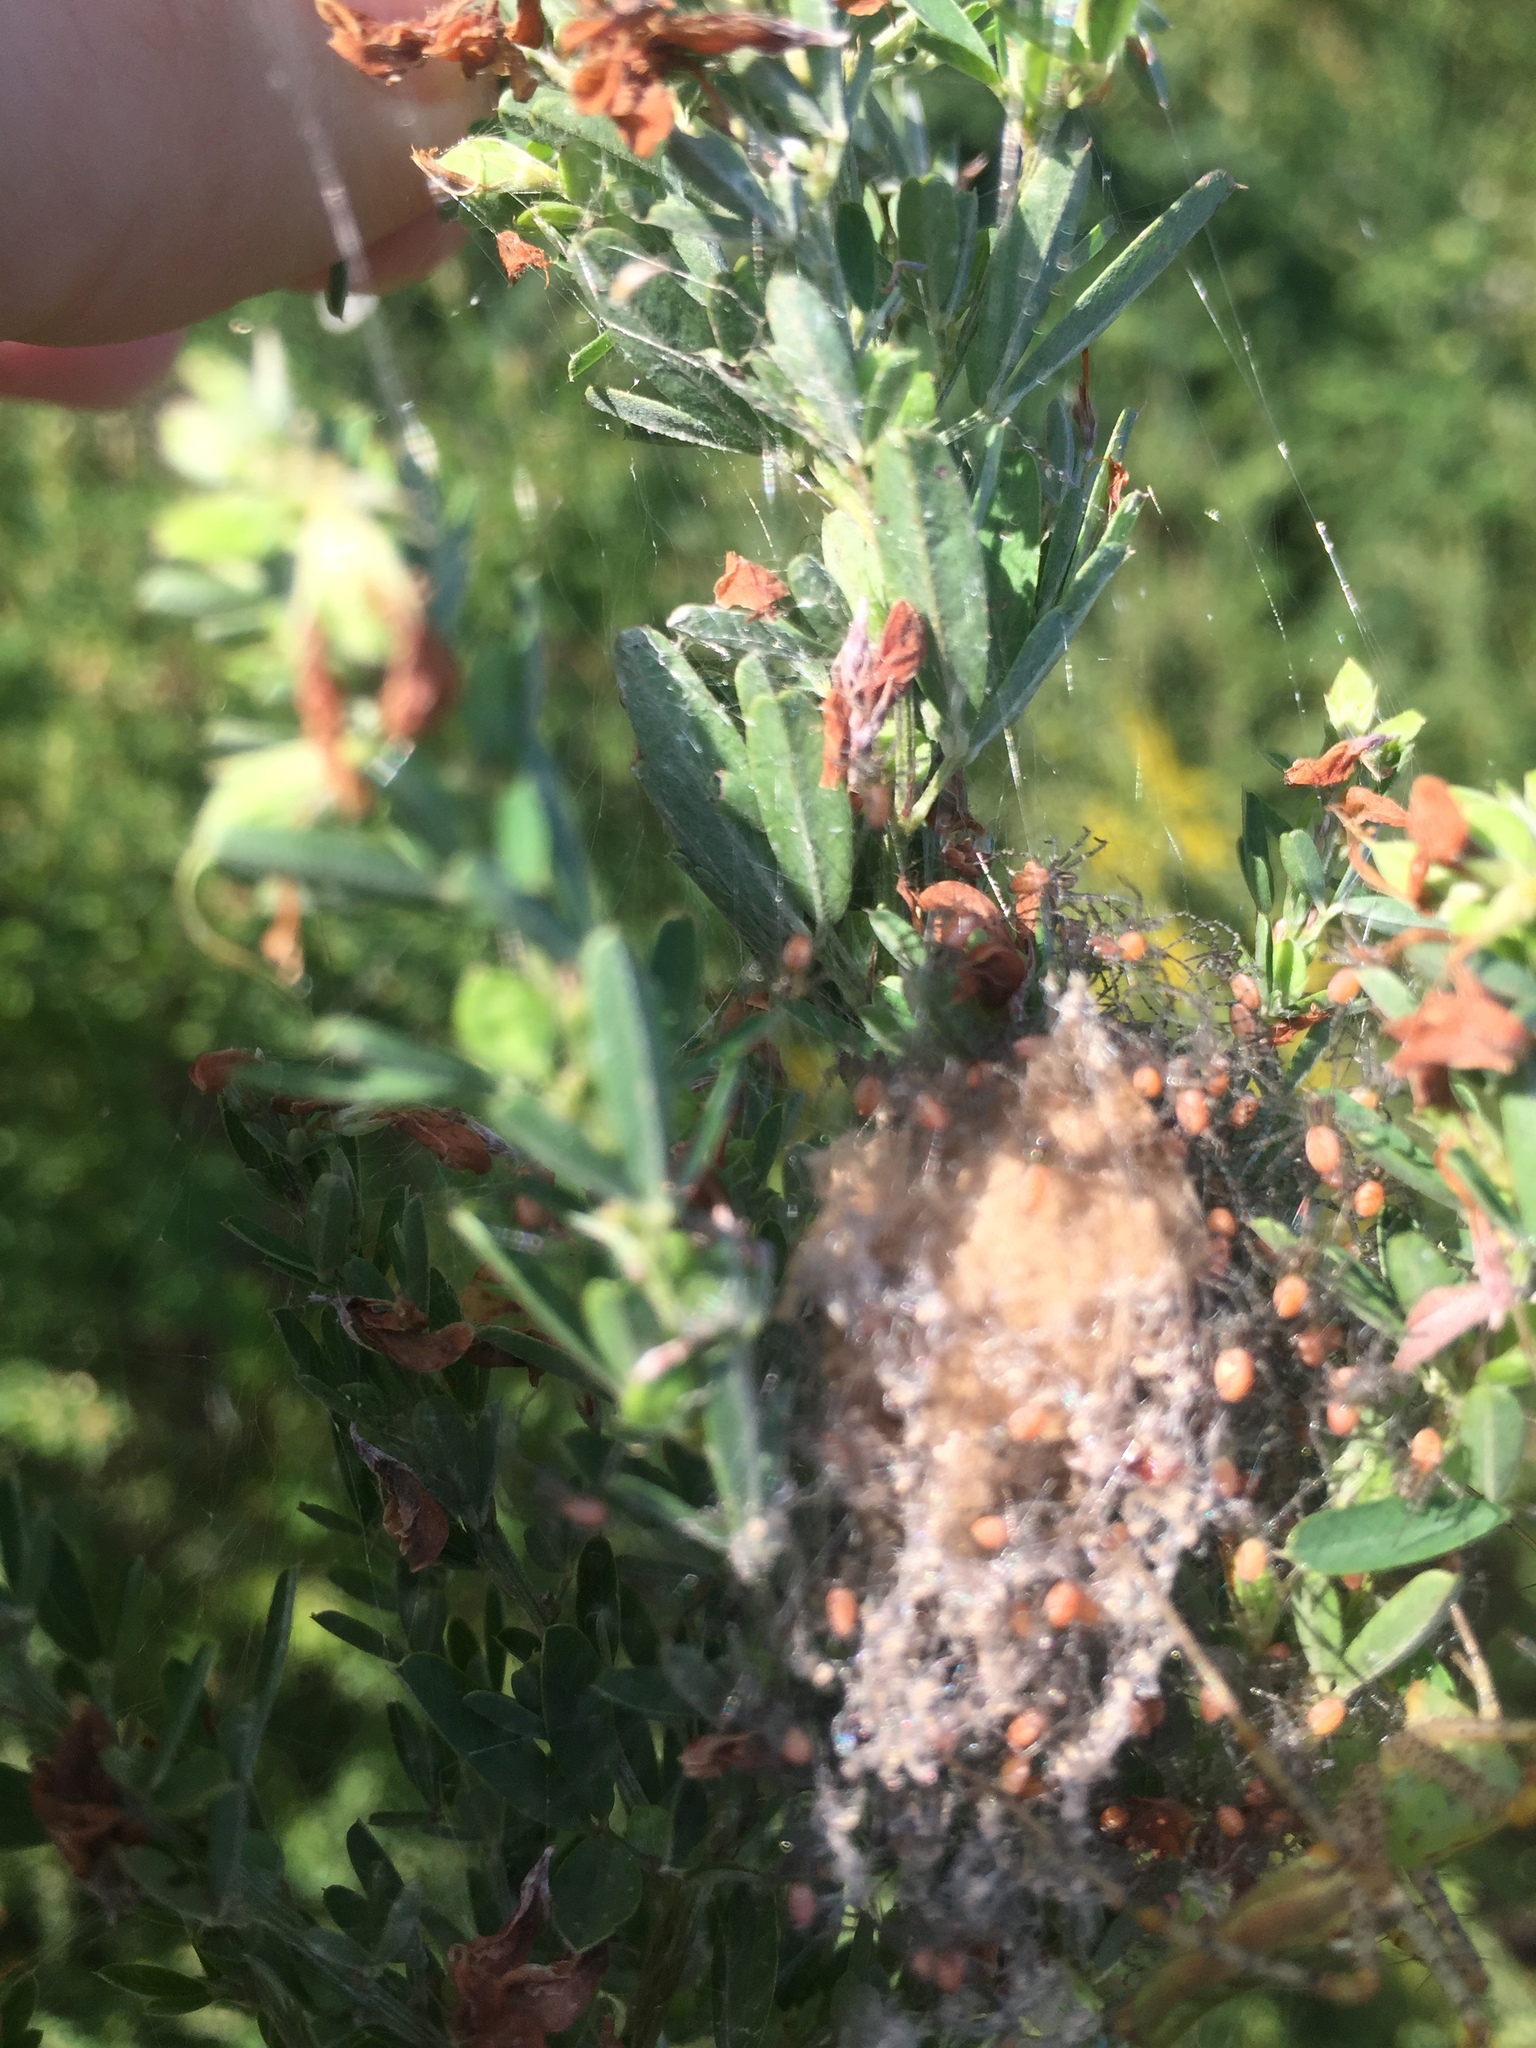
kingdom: Animalia
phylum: Arthropoda
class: Arachnida
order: Araneae
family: Oxyopidae
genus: Peucetia
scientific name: Peucetia viridans
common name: Lynx spiders
